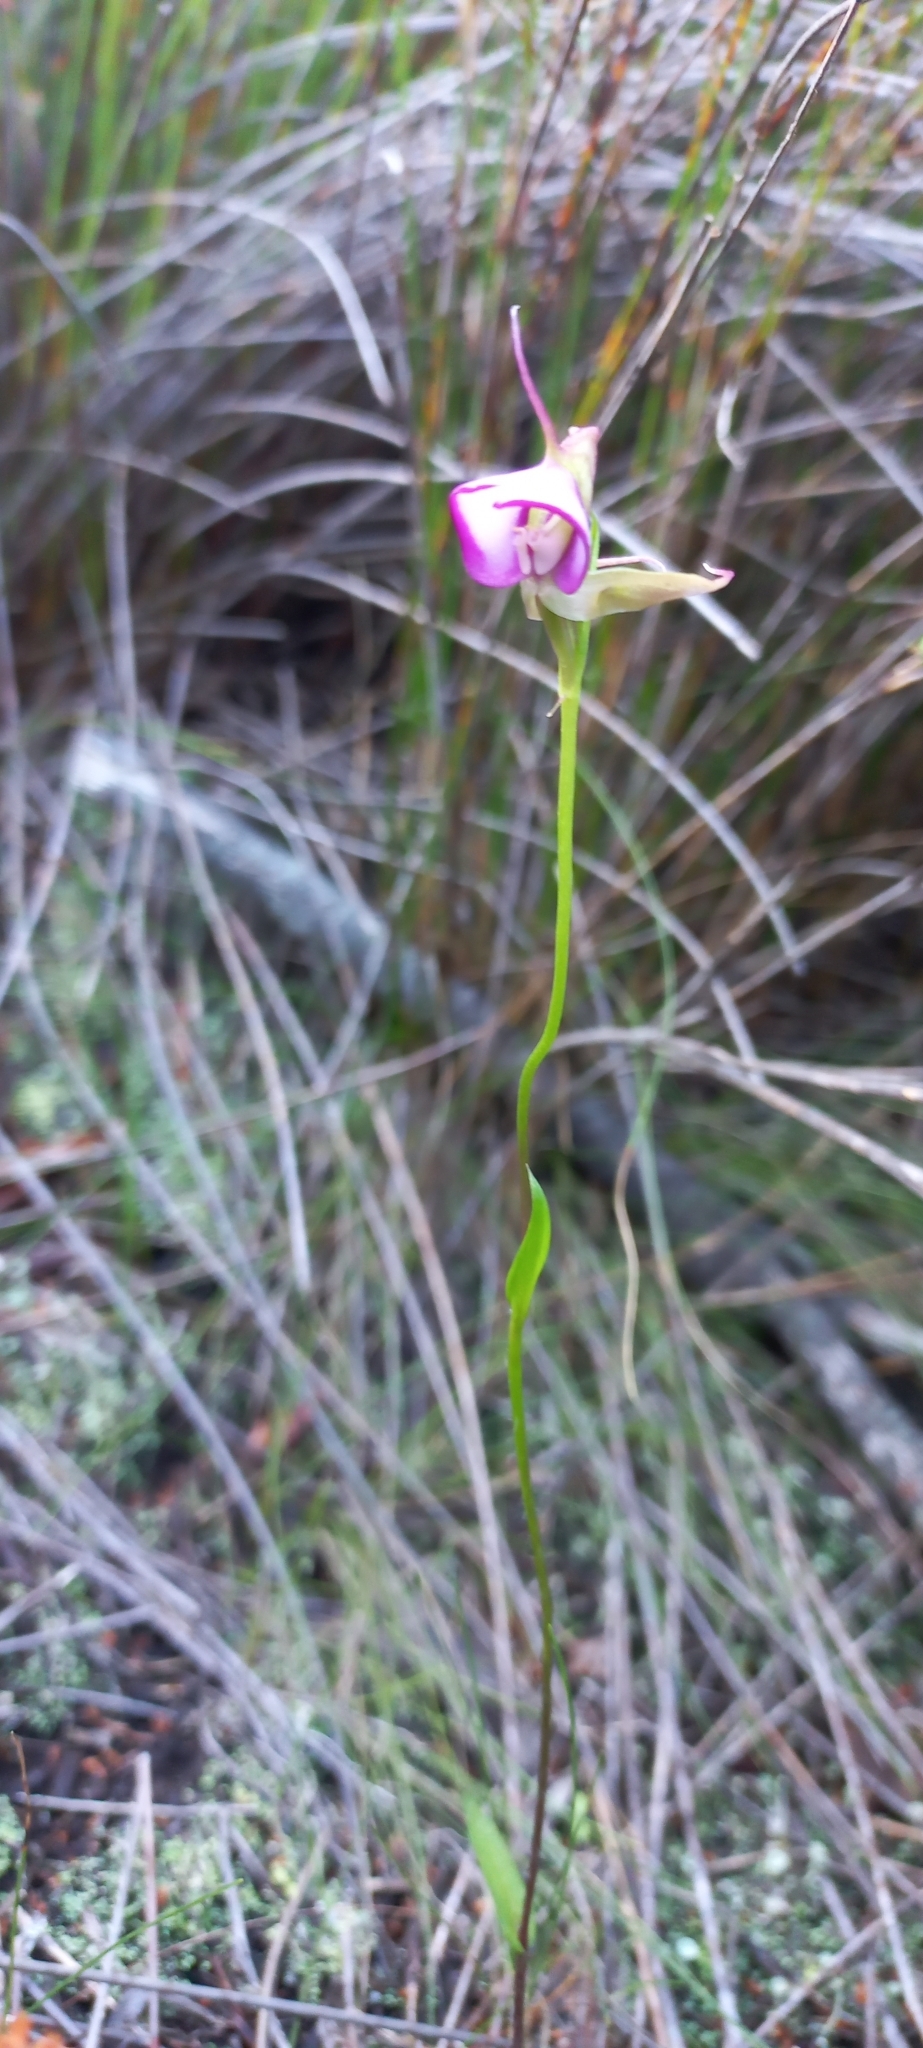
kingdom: Plantae
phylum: Tracheophyta
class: Liliopsida
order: Asparagales
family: Orchidaceae
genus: Disperis
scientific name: Disperis capensis
